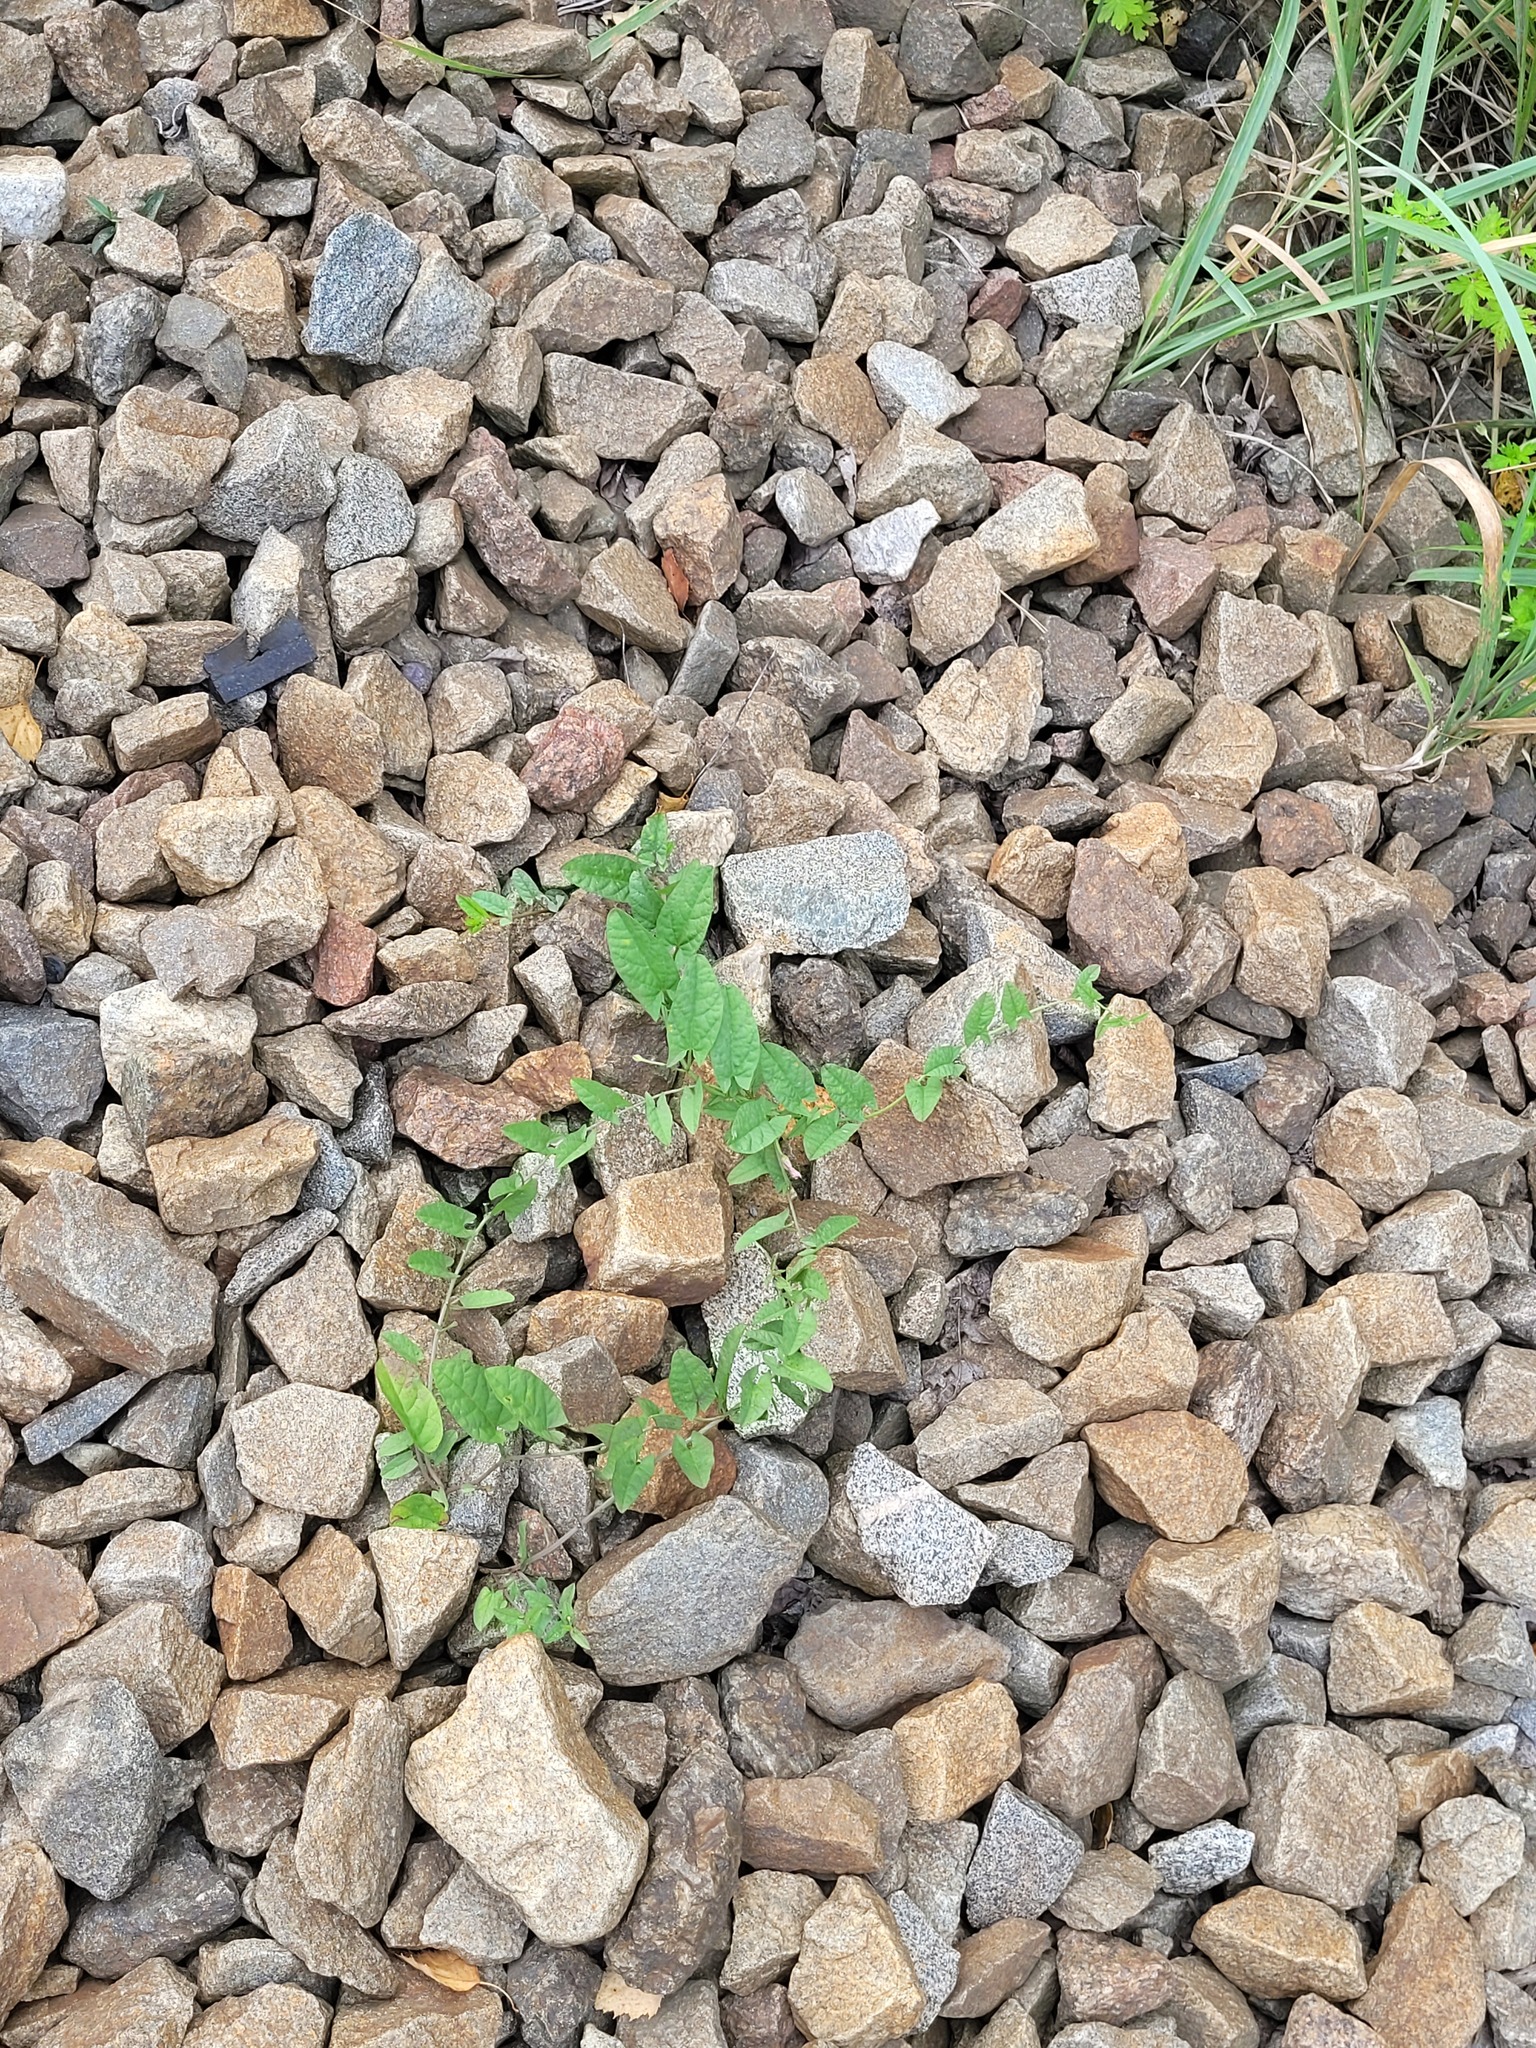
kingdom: Plantae
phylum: Tracheophyta
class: Magnoliopsida
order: Solanales
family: Convolvulaceae
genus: Convolvulus
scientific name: Convolvulus arvensis
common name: Field bindweed
